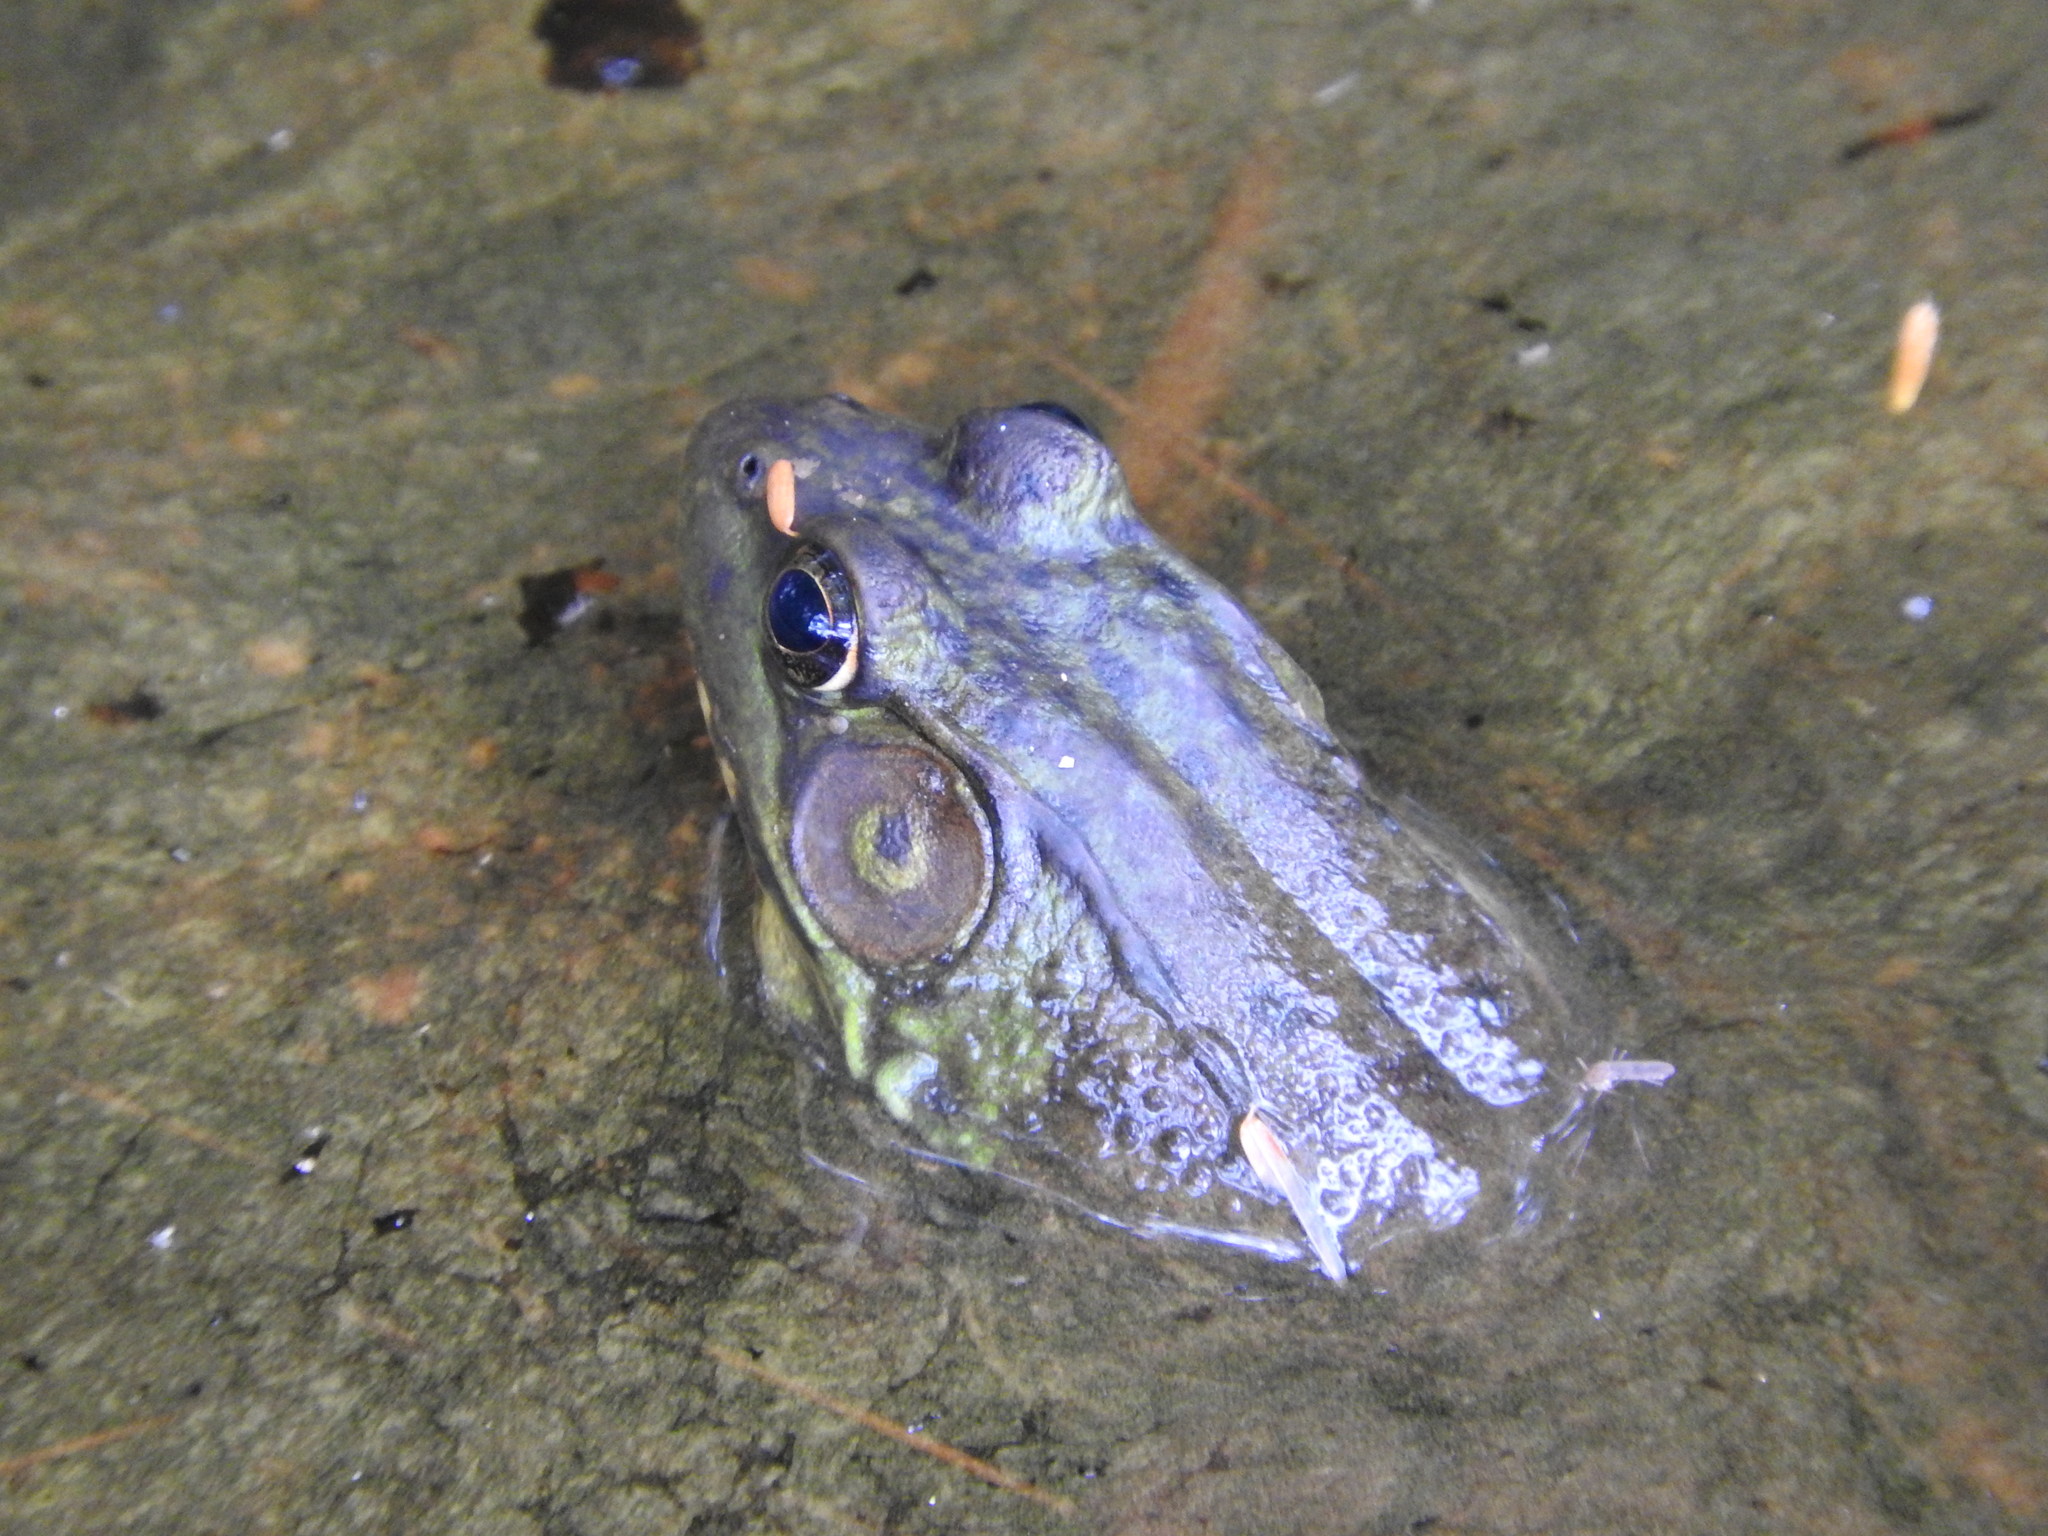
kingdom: Animalia
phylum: Chordata
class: Amphibia
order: Anura
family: Ranidae
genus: Lithobates
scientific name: Lithobates clamitans
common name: Green frog
